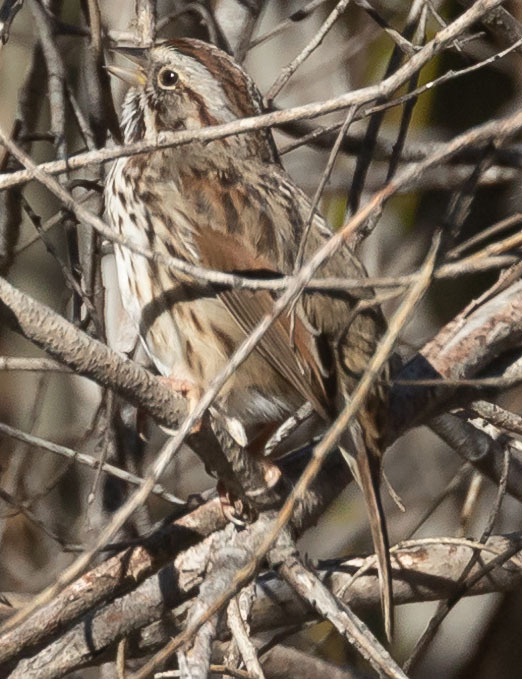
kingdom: Animalia
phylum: Chordata
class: Aves
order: Passeriformes
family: Passerellidae
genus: Melospiza
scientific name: Melospiza melodia
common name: Song sparrow
